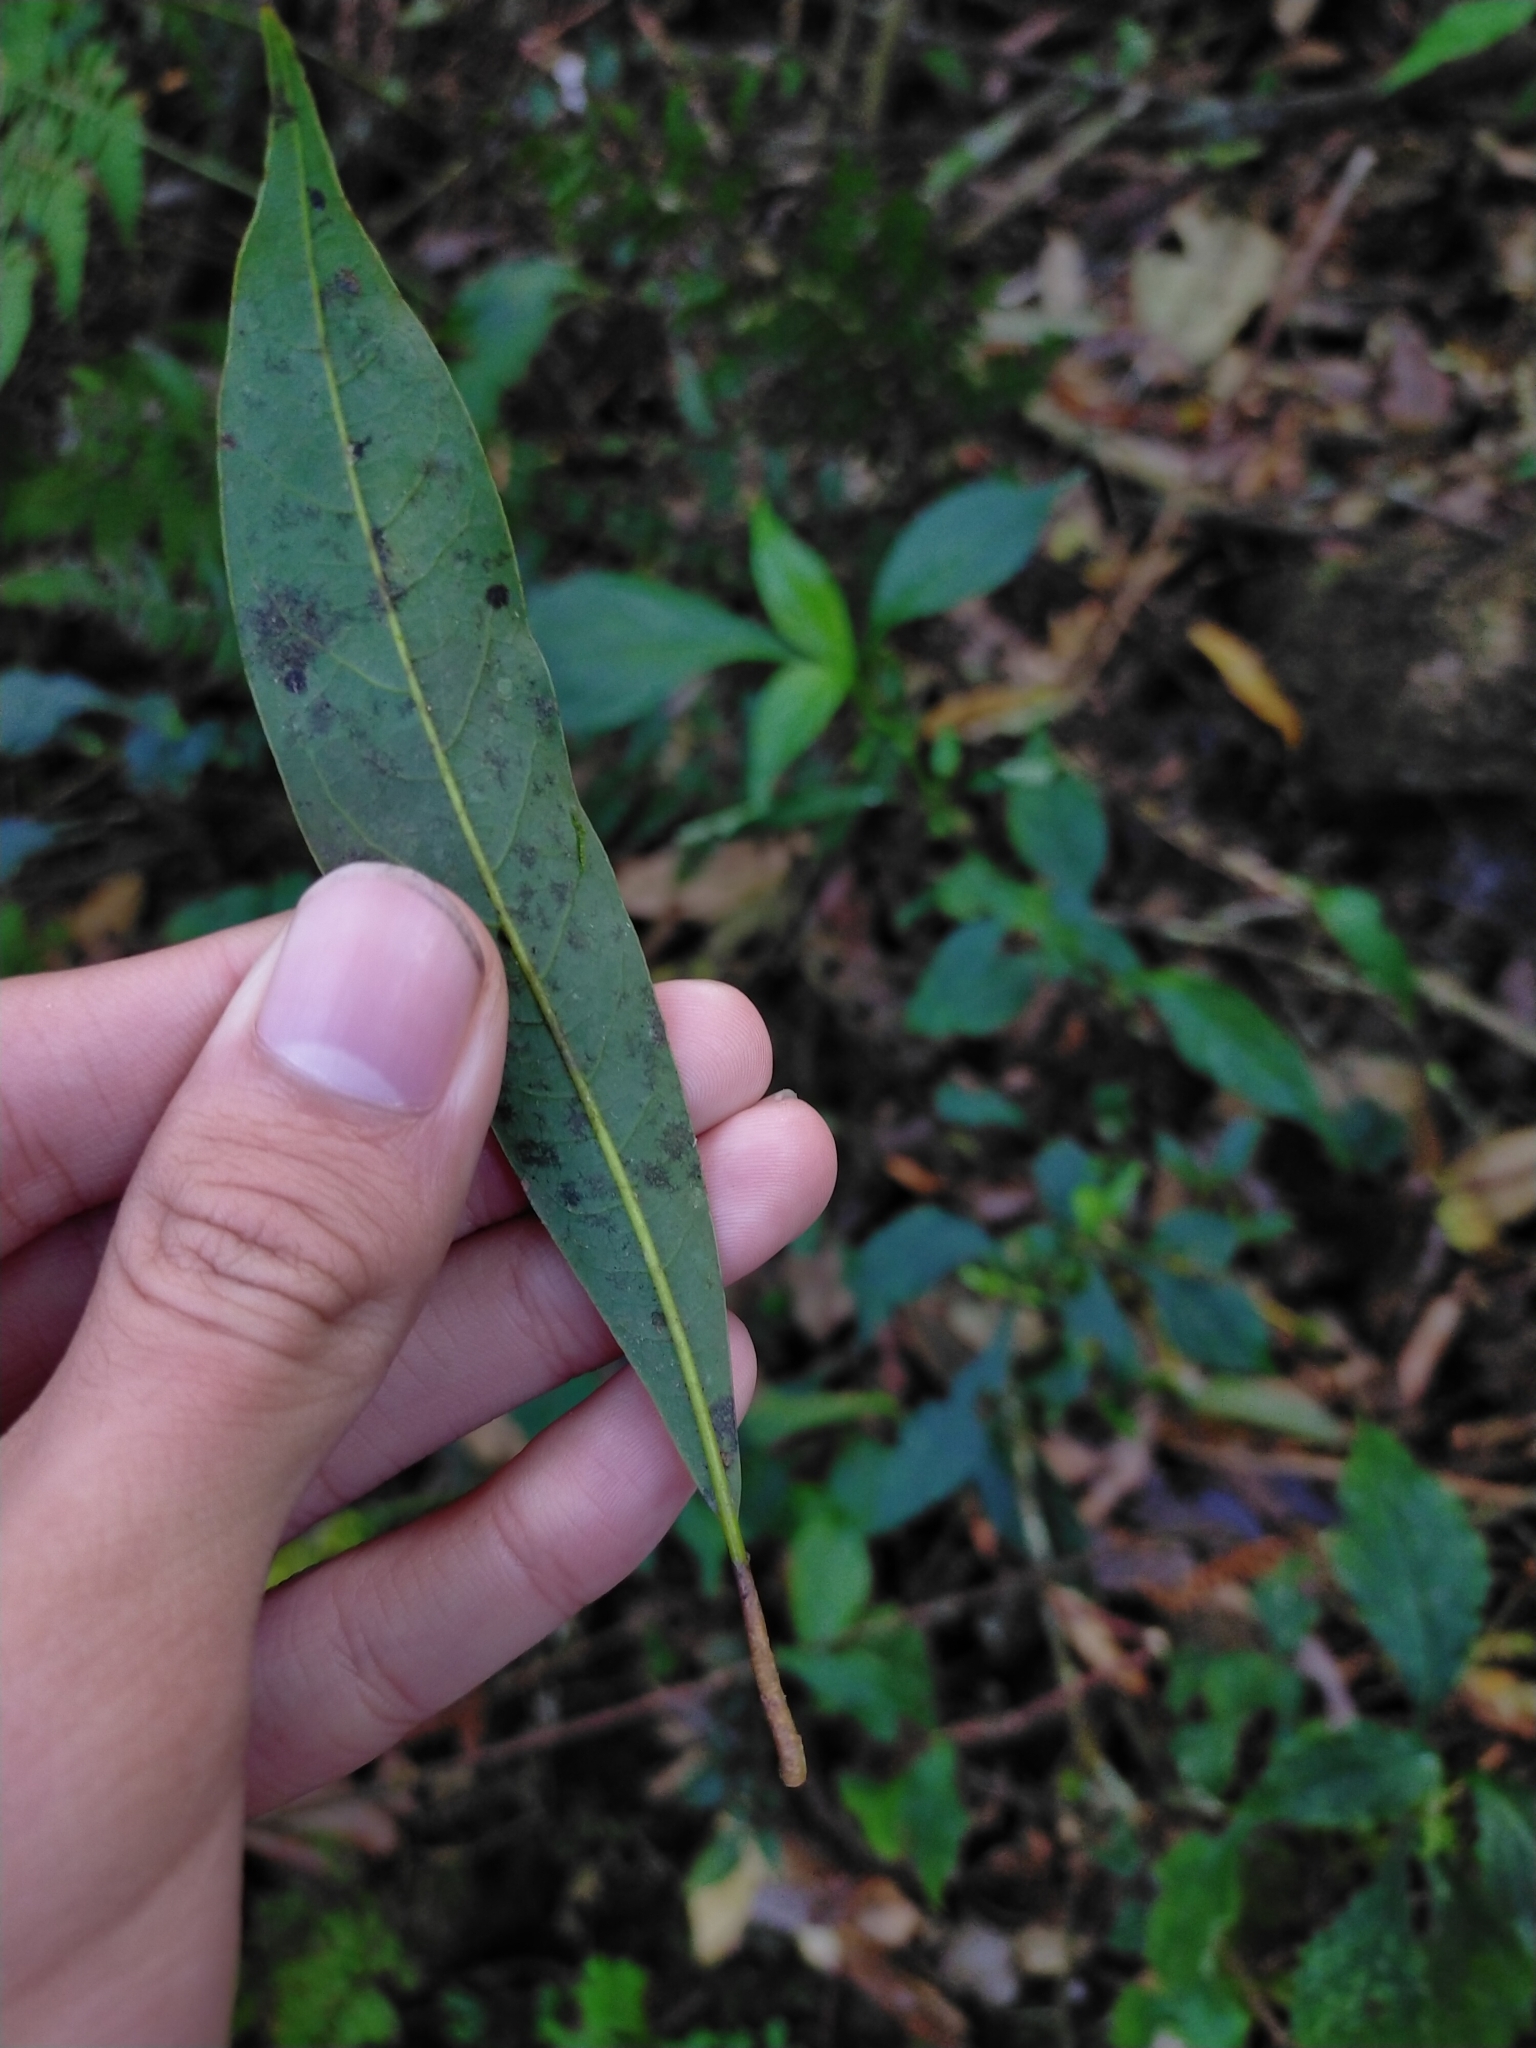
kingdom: Plantae
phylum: Tracheophyta
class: Magnoliopsida
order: Laurales
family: Lauraceae
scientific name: Lauraceae
